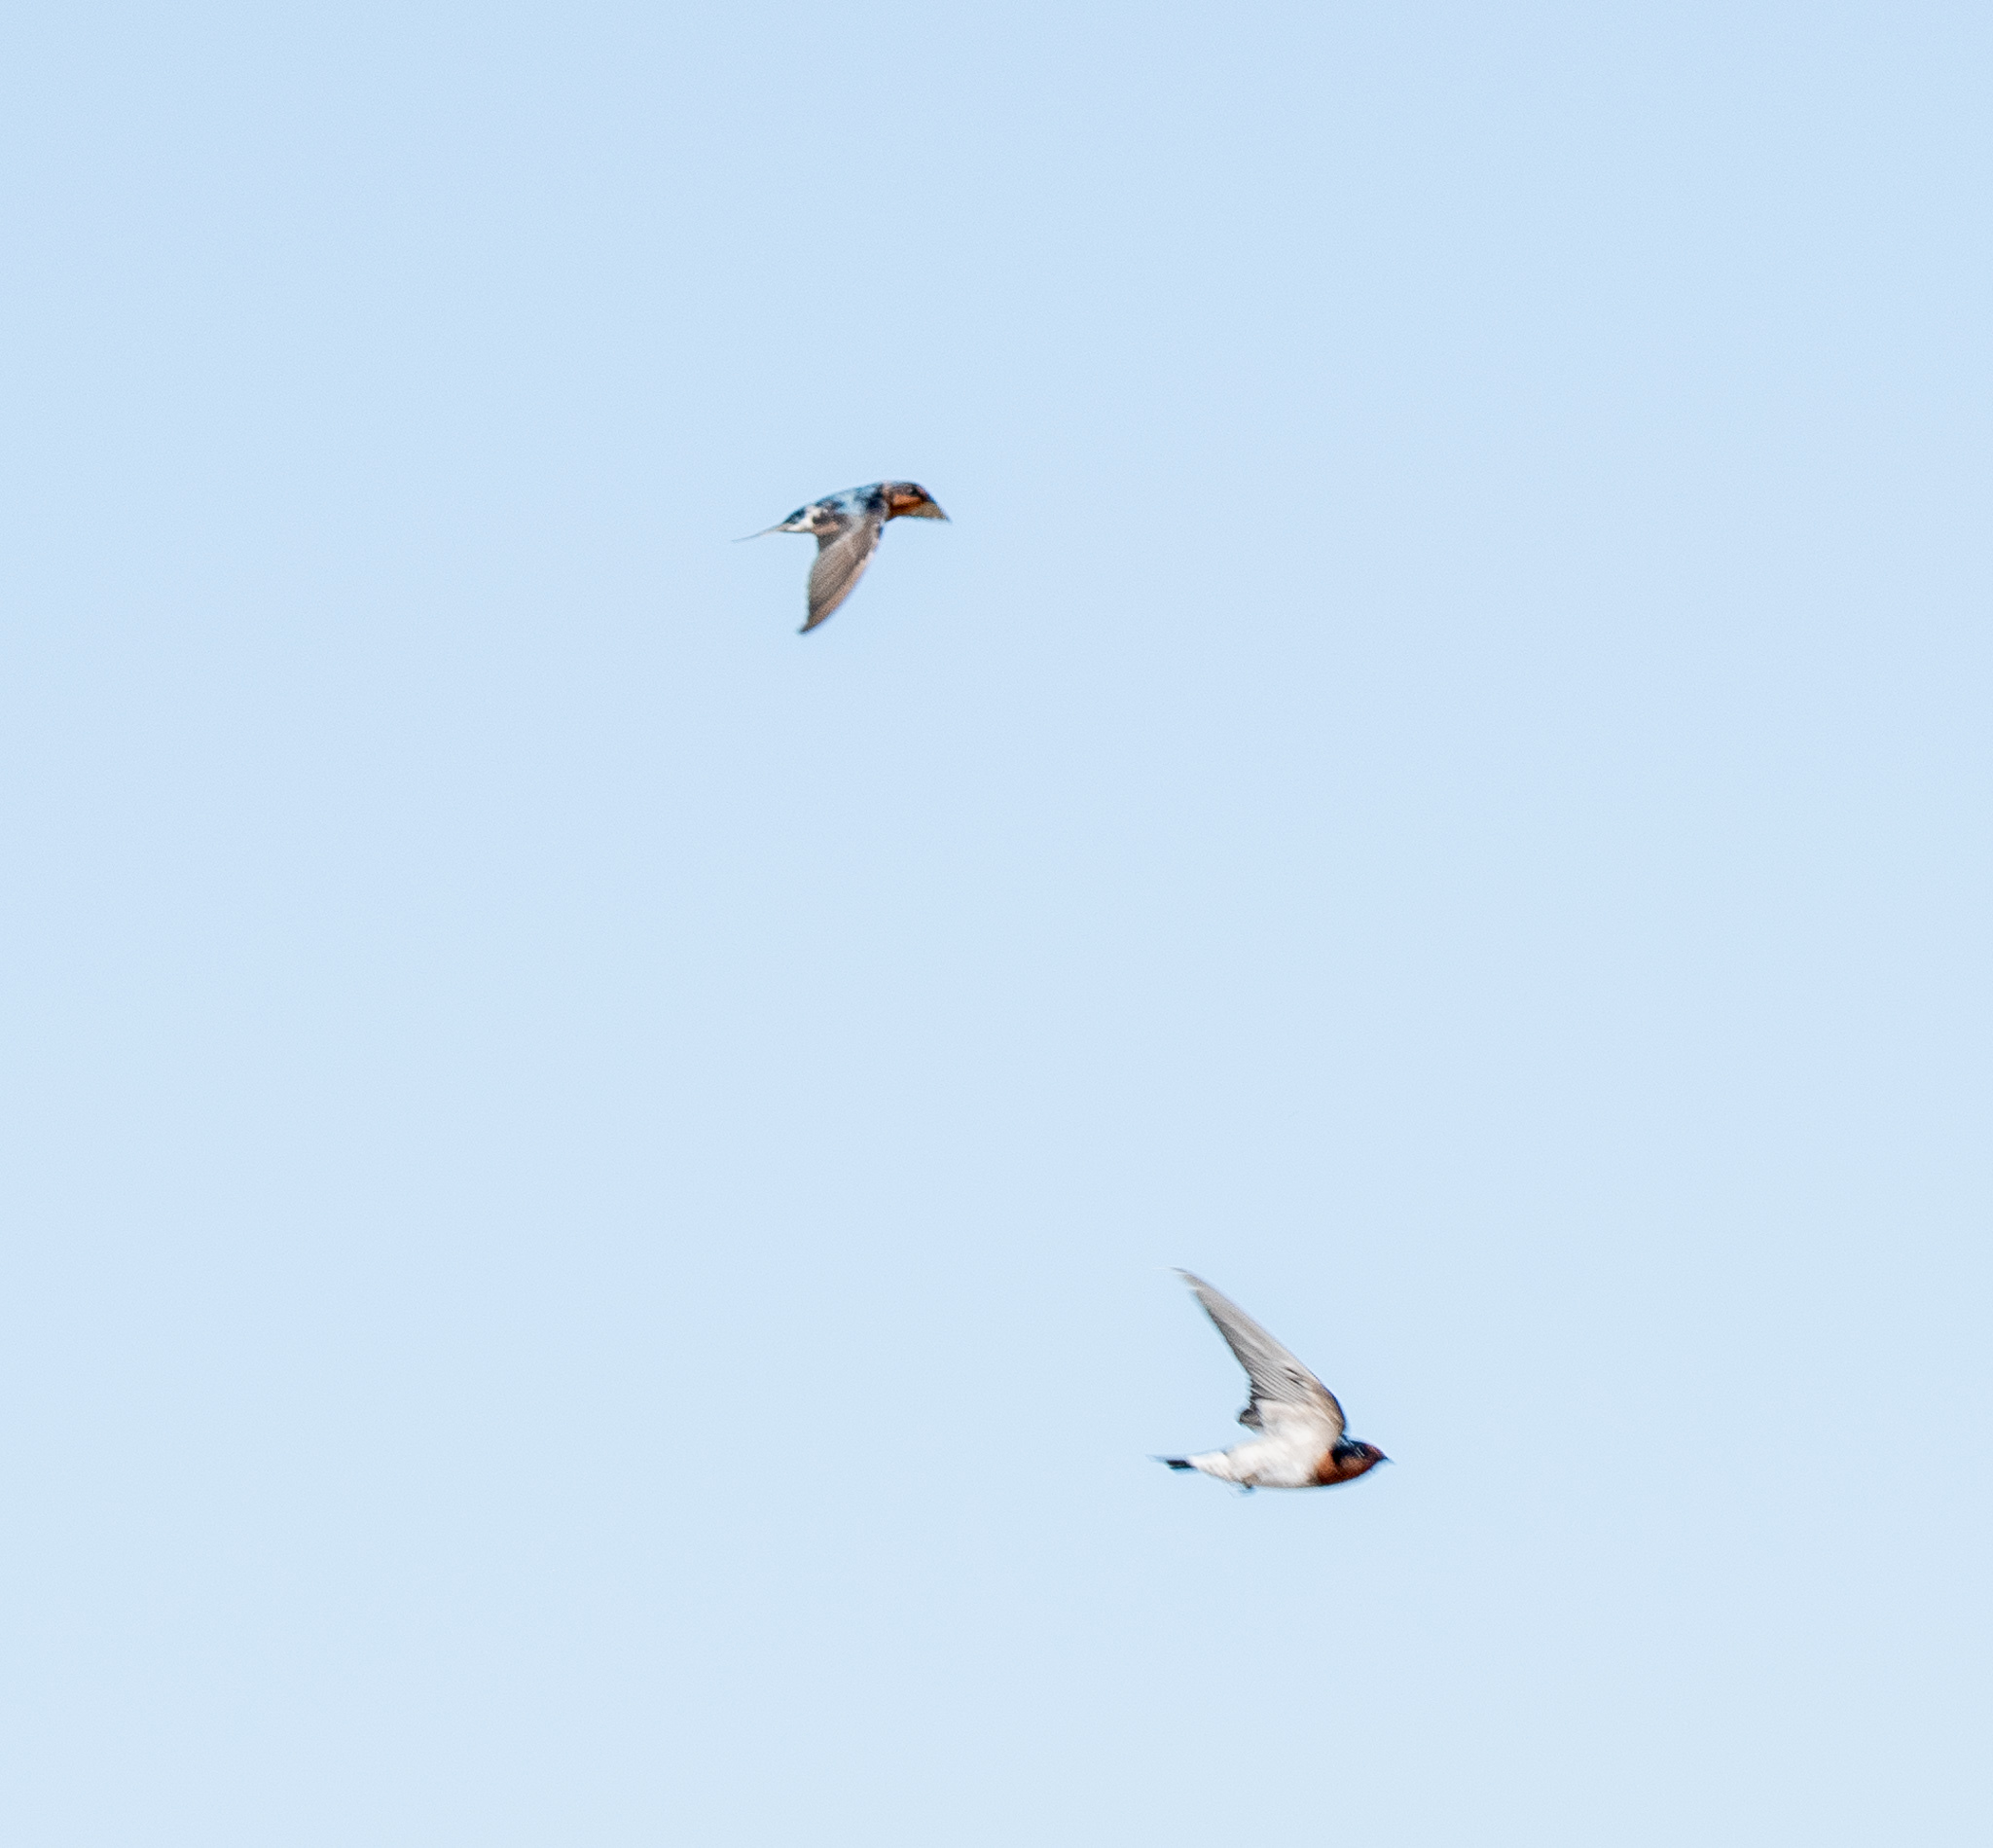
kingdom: Animalia
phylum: Chordata
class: Aves
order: Passeriformes
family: Hirundinidae
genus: Hirundo
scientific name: Hirundo neoxena
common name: Welcome swallow
